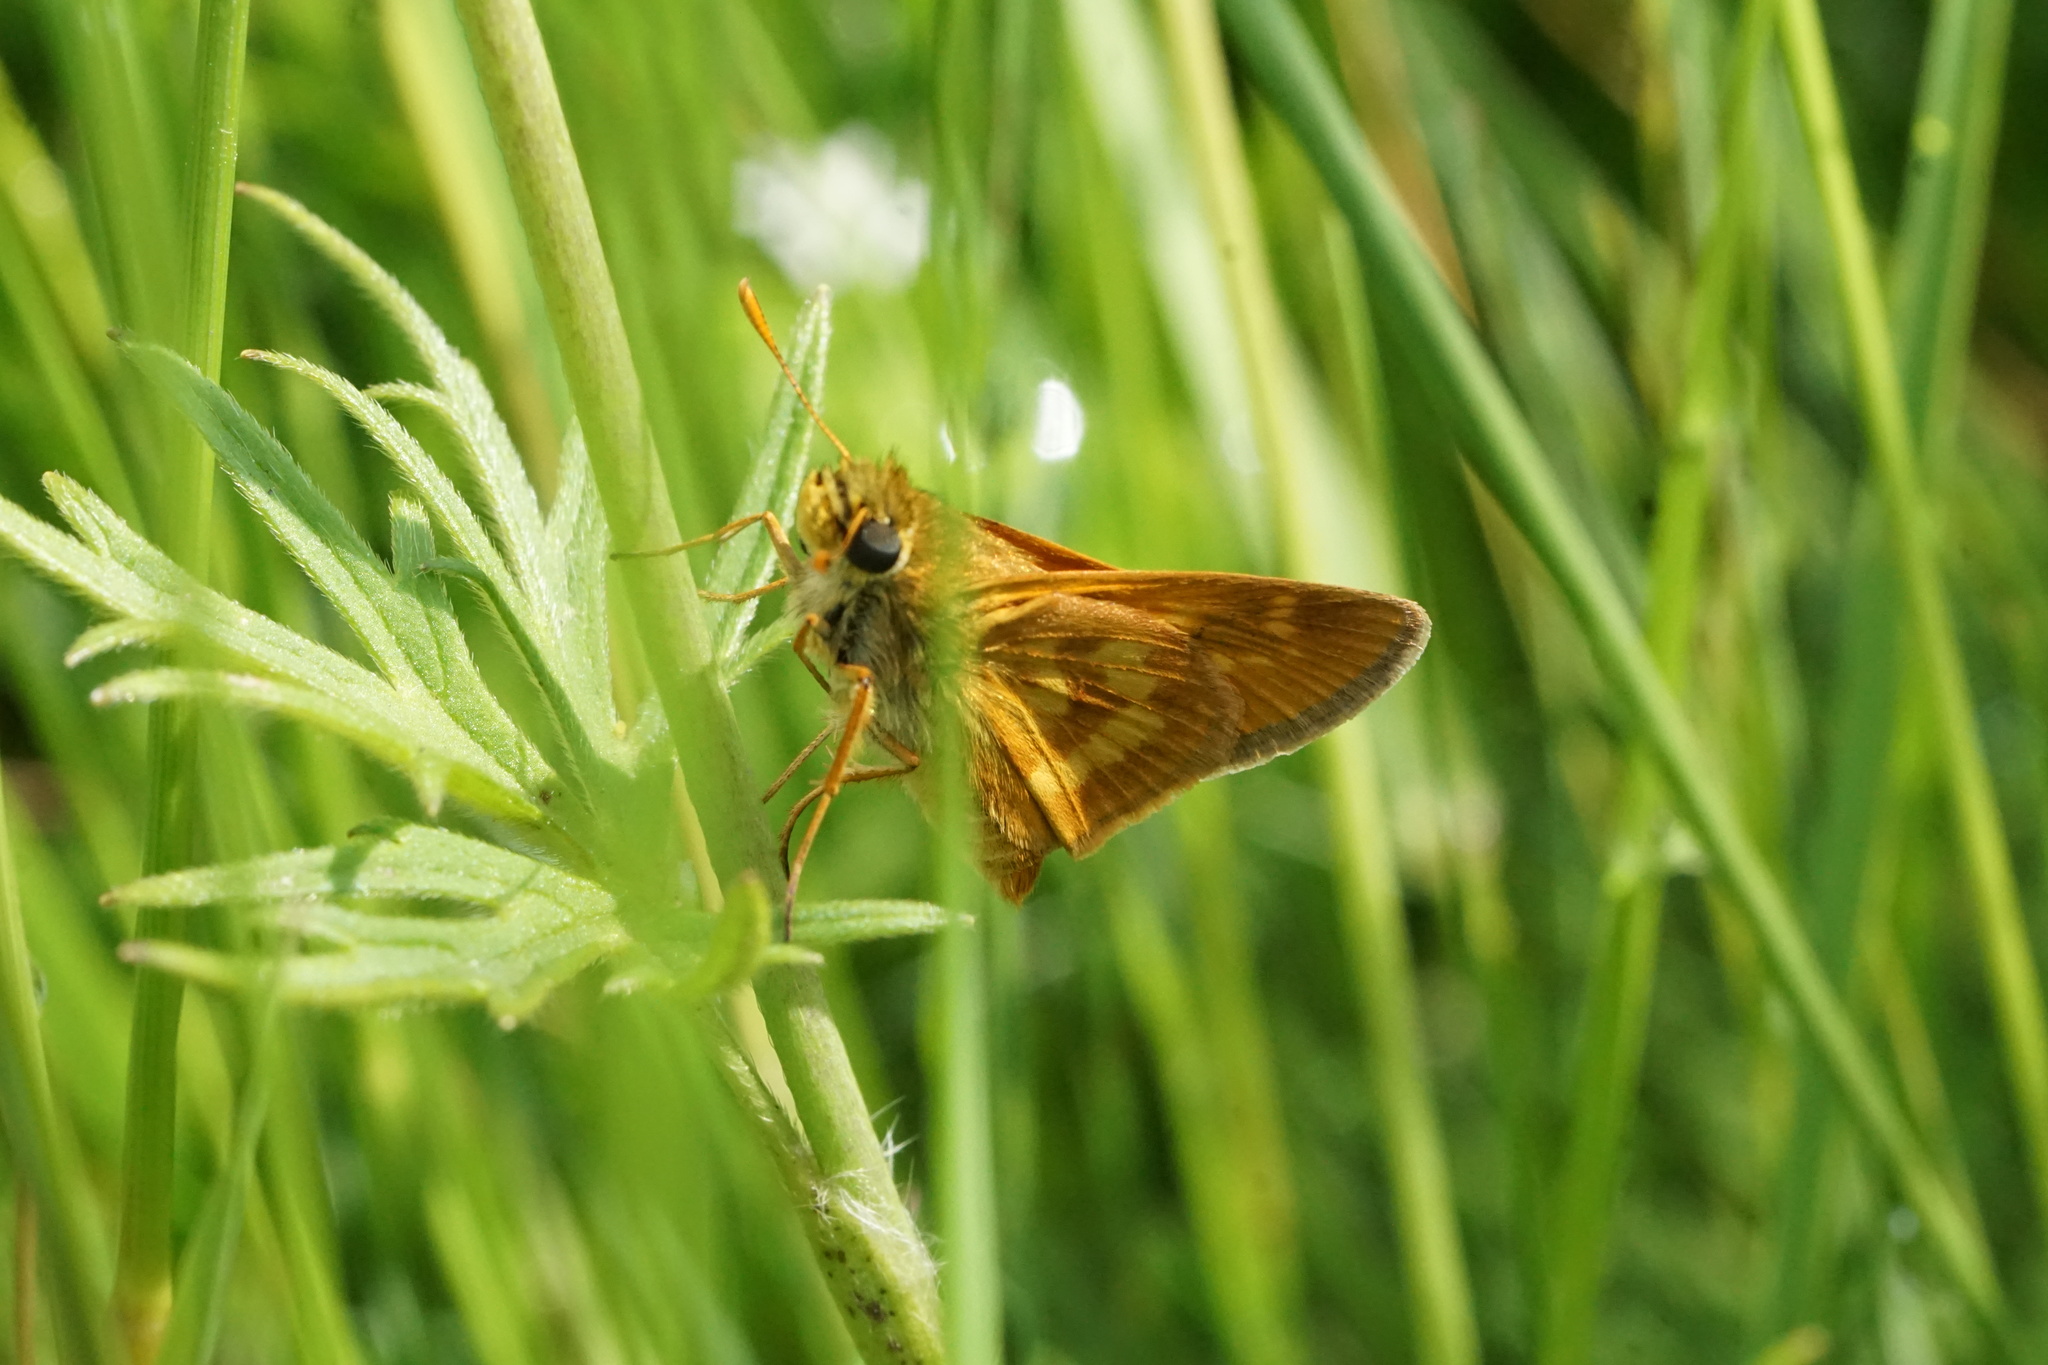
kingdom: Animalia
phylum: Arthropoda
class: Insecta
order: Lepidoptera
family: Hesperiidae
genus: Polites
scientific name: Polites mystic
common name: Long dash
